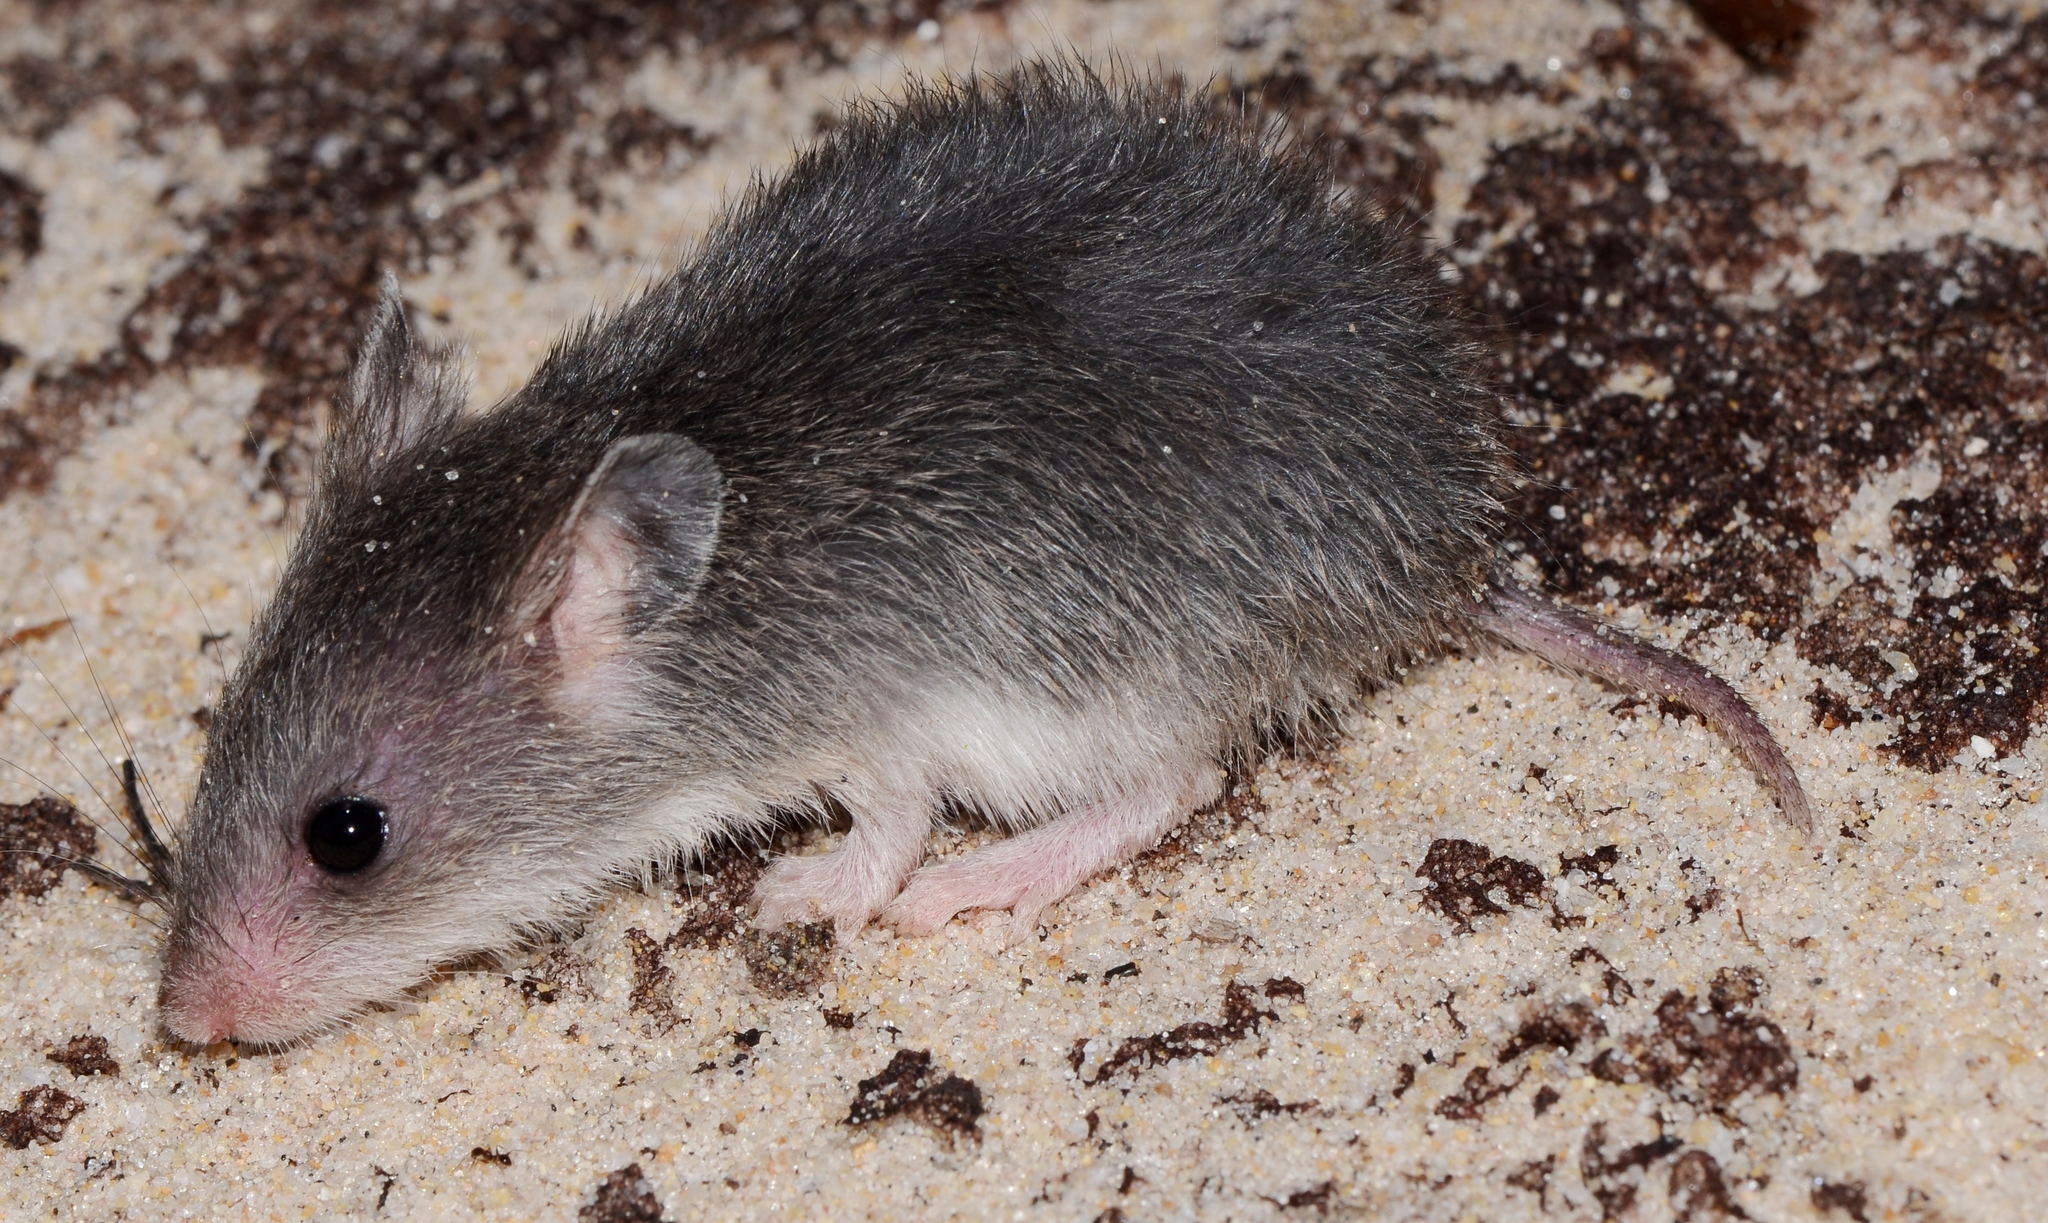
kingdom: Animalia
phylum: Chordata
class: Mammalia
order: Rodentia
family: Nesomyidae
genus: Saccostomus
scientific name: Saccostomus campestris
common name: Southern african pouched mouse
